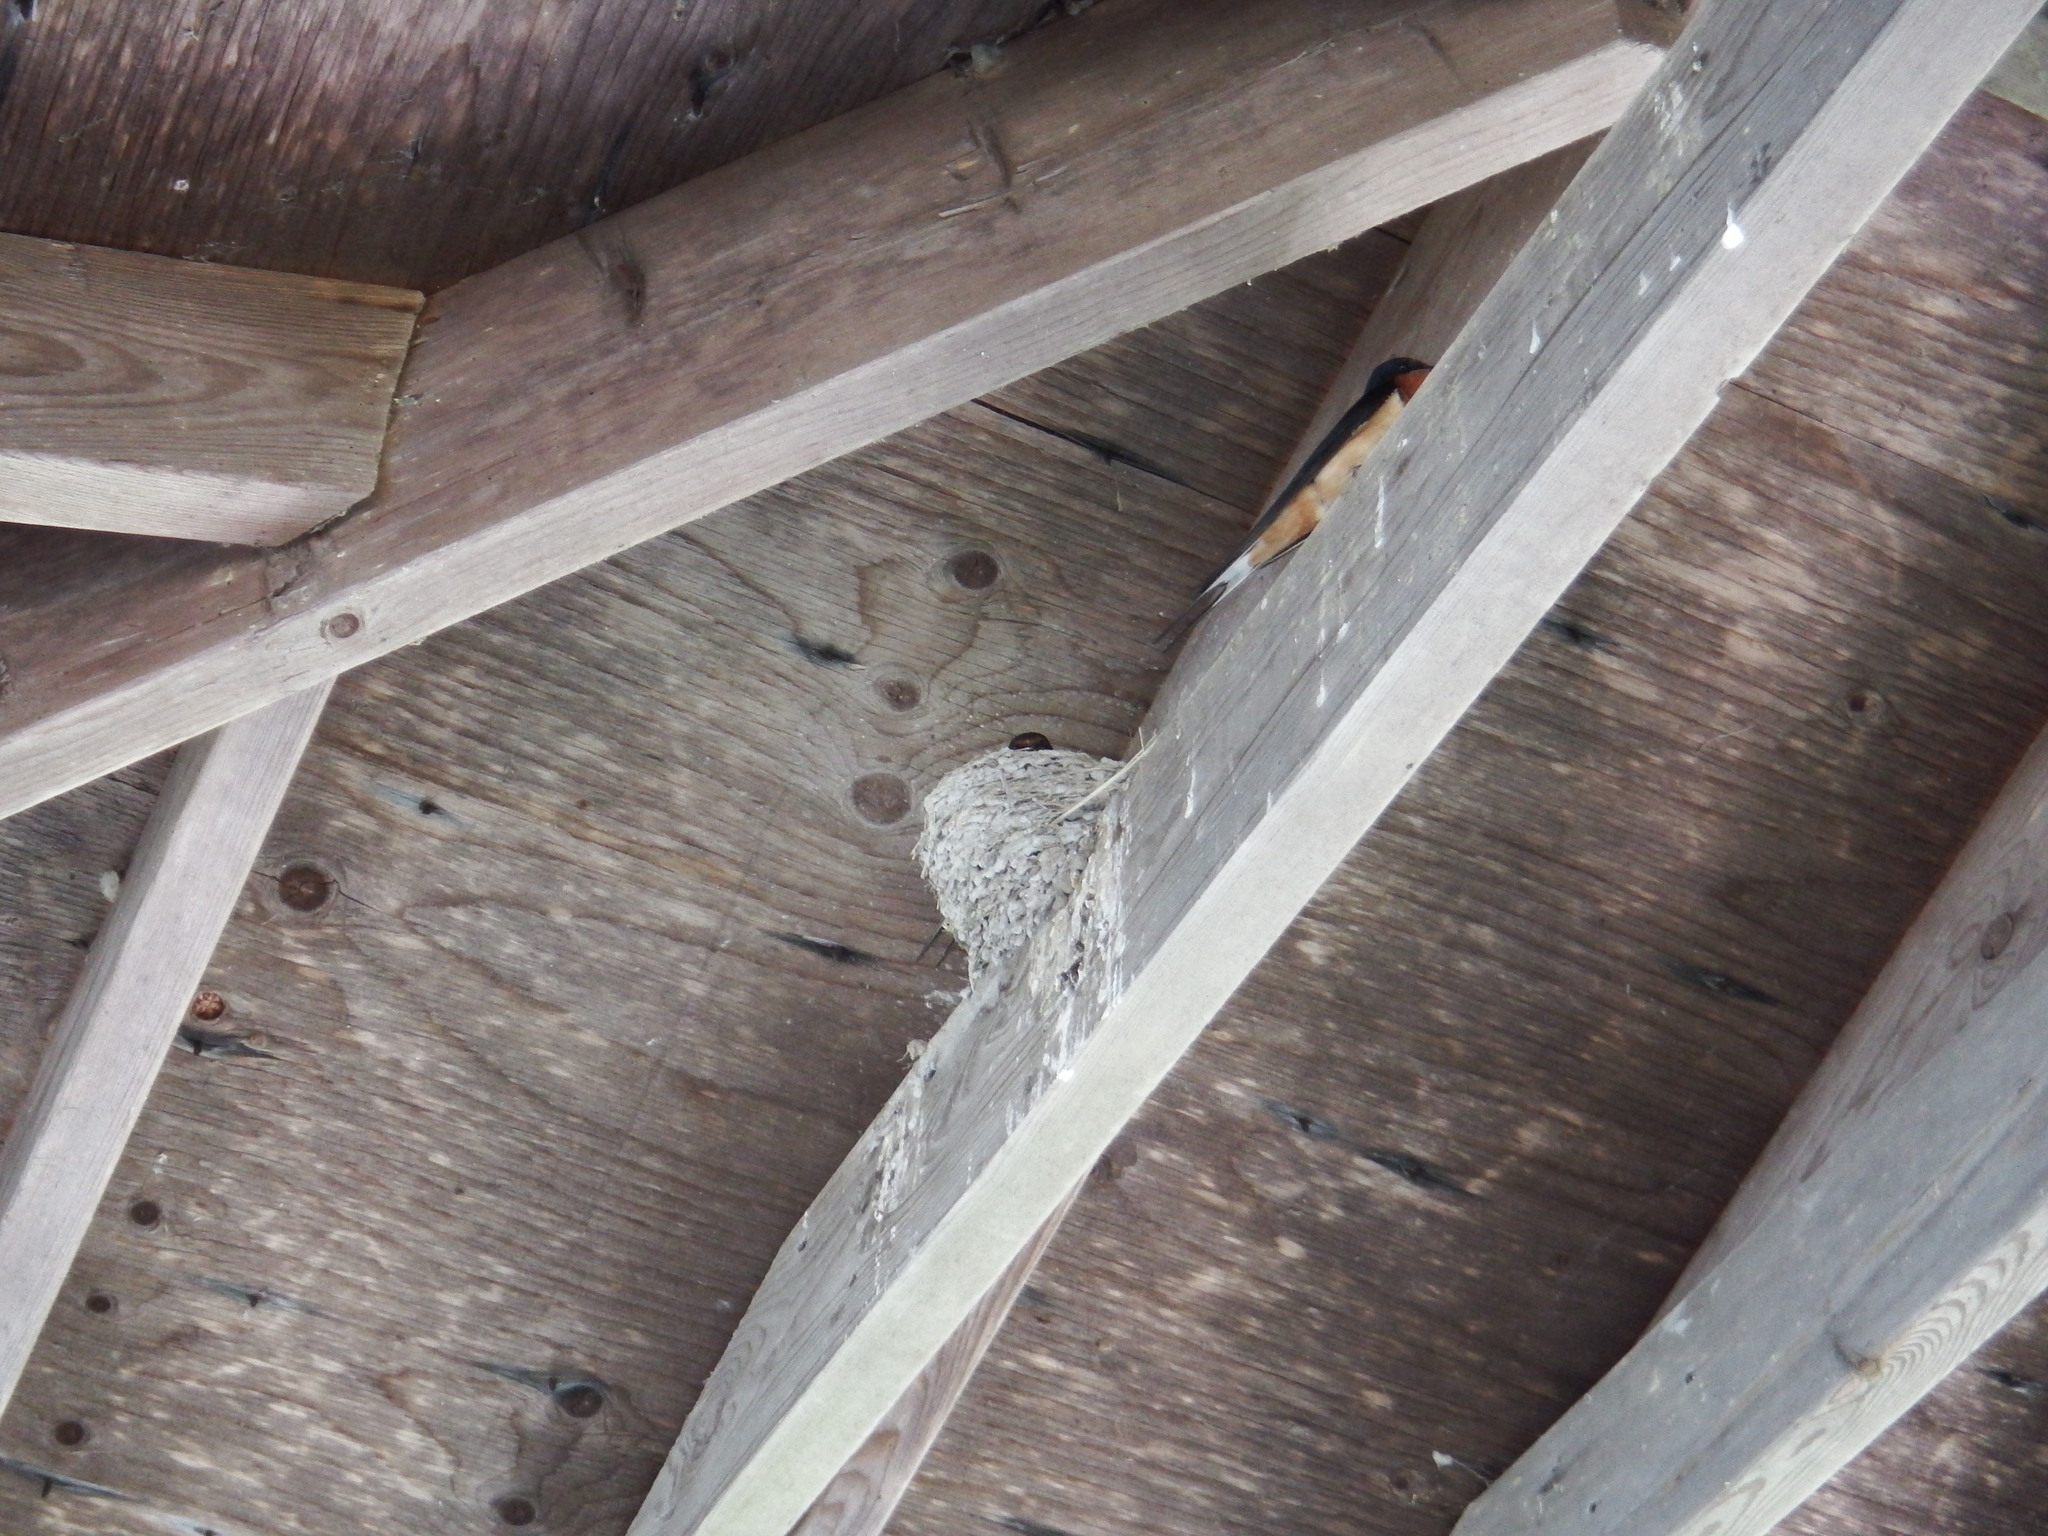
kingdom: Animalia
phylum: Chordata
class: Aves
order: Passeriformes
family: Hirundinidae
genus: Hirundo
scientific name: Hirundo rustica
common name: Barn swallow
